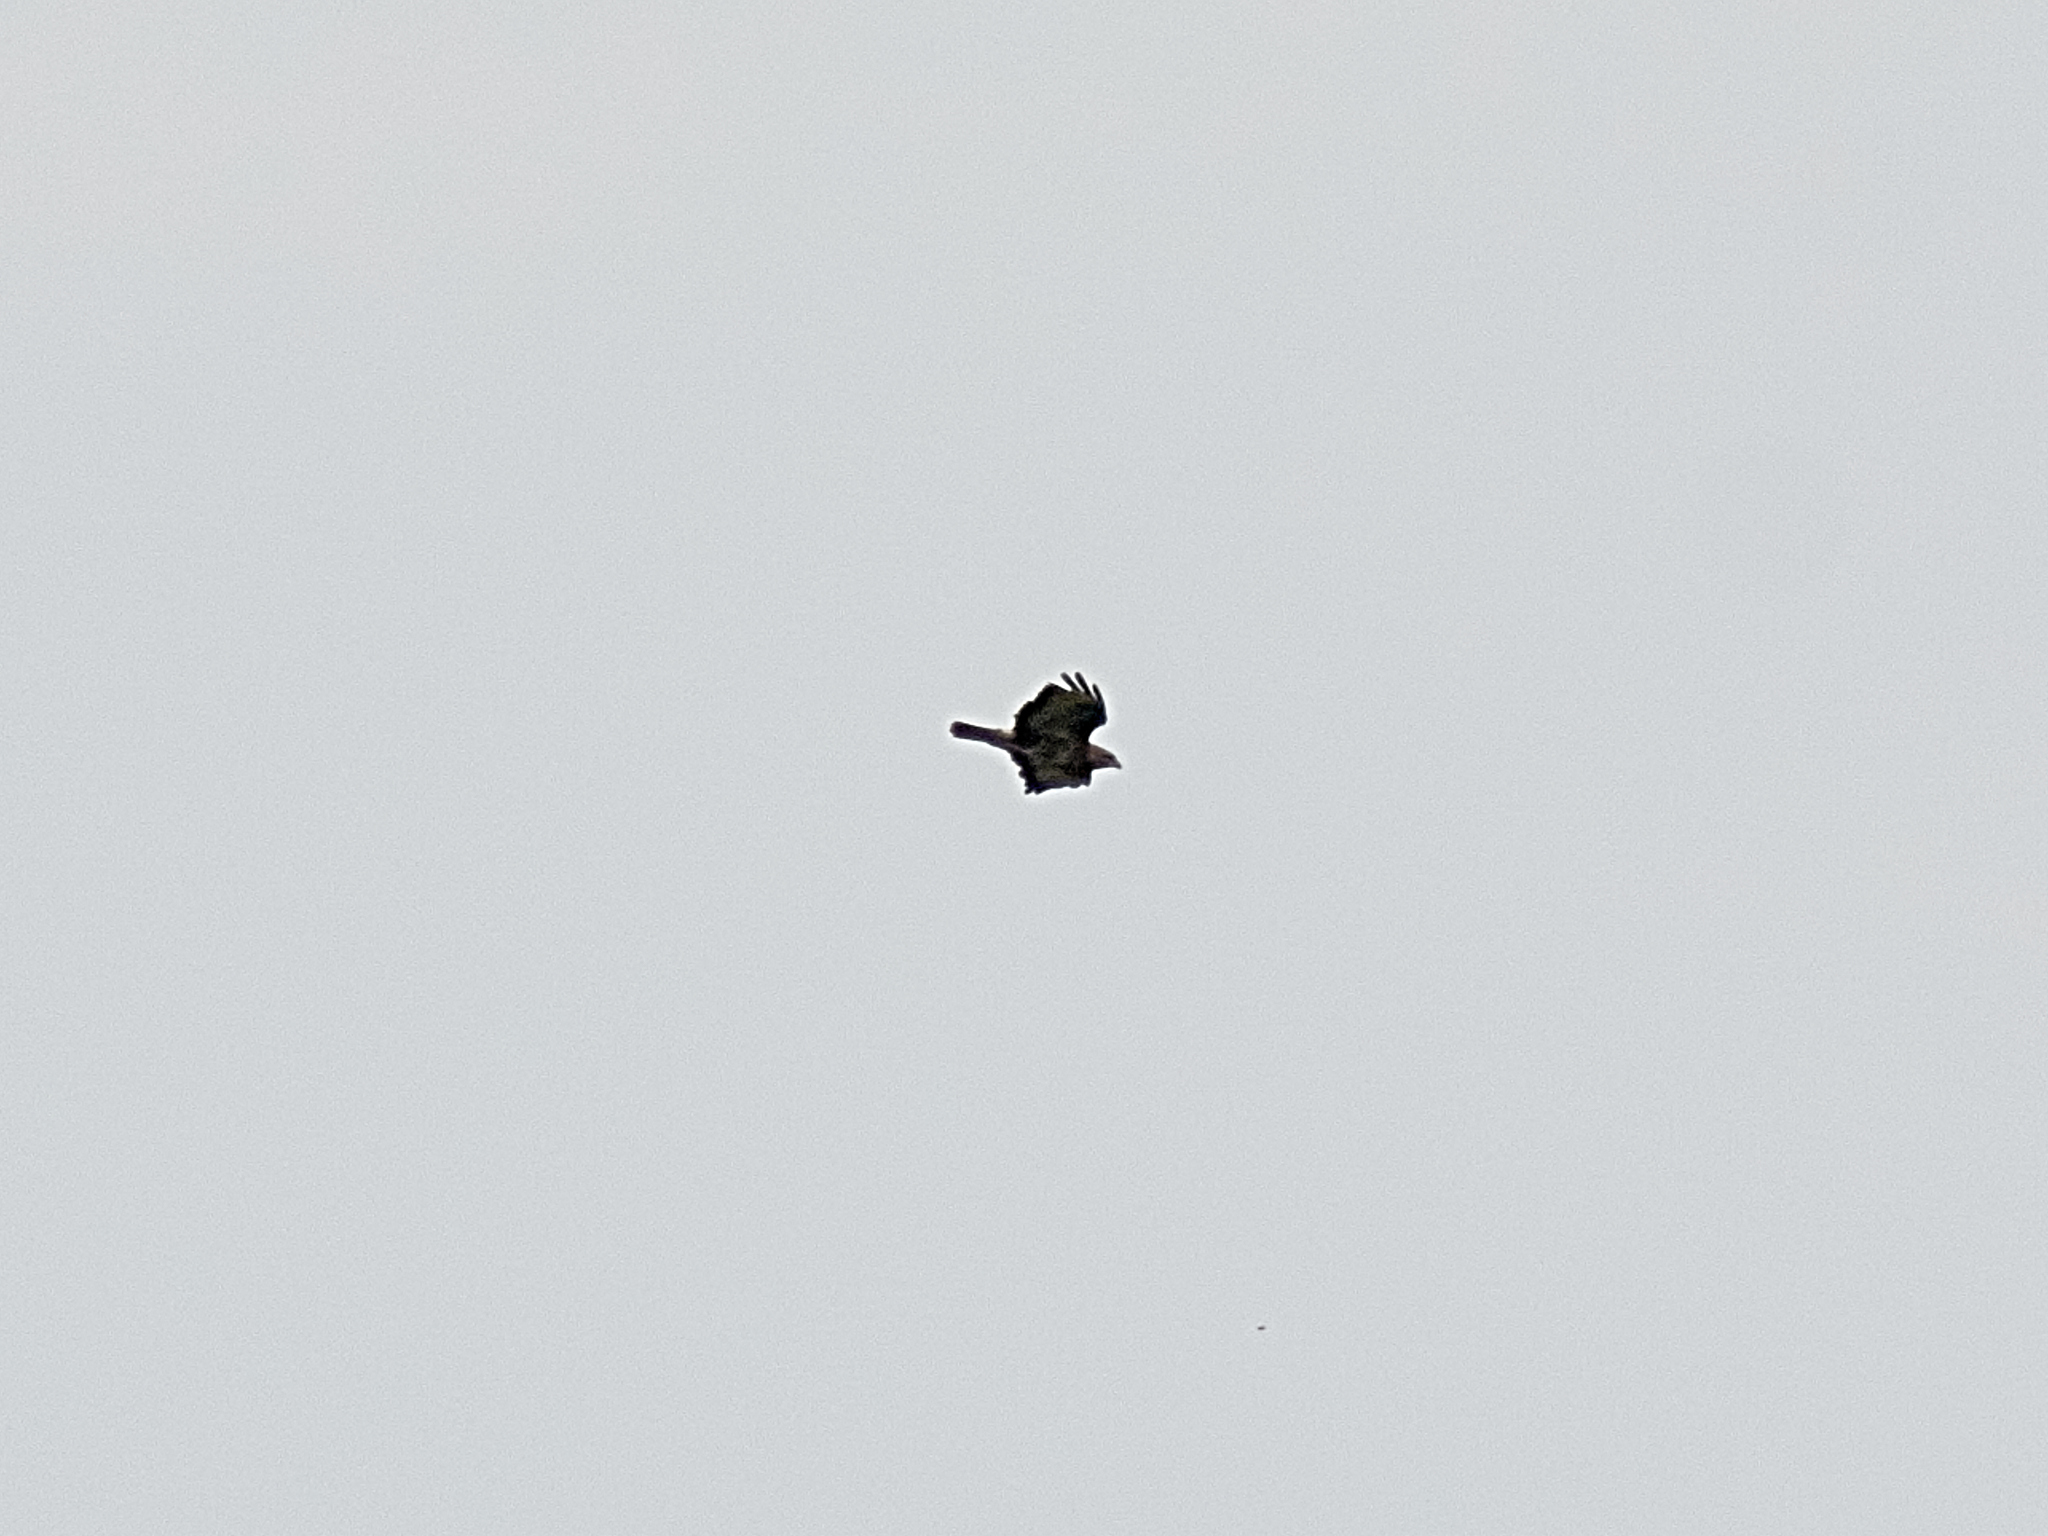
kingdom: Animalia
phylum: Chordata
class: Aves
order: Accipitriformes
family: Accipitridae
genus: Buteo
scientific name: Buteo buteo
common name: Common buzzard
